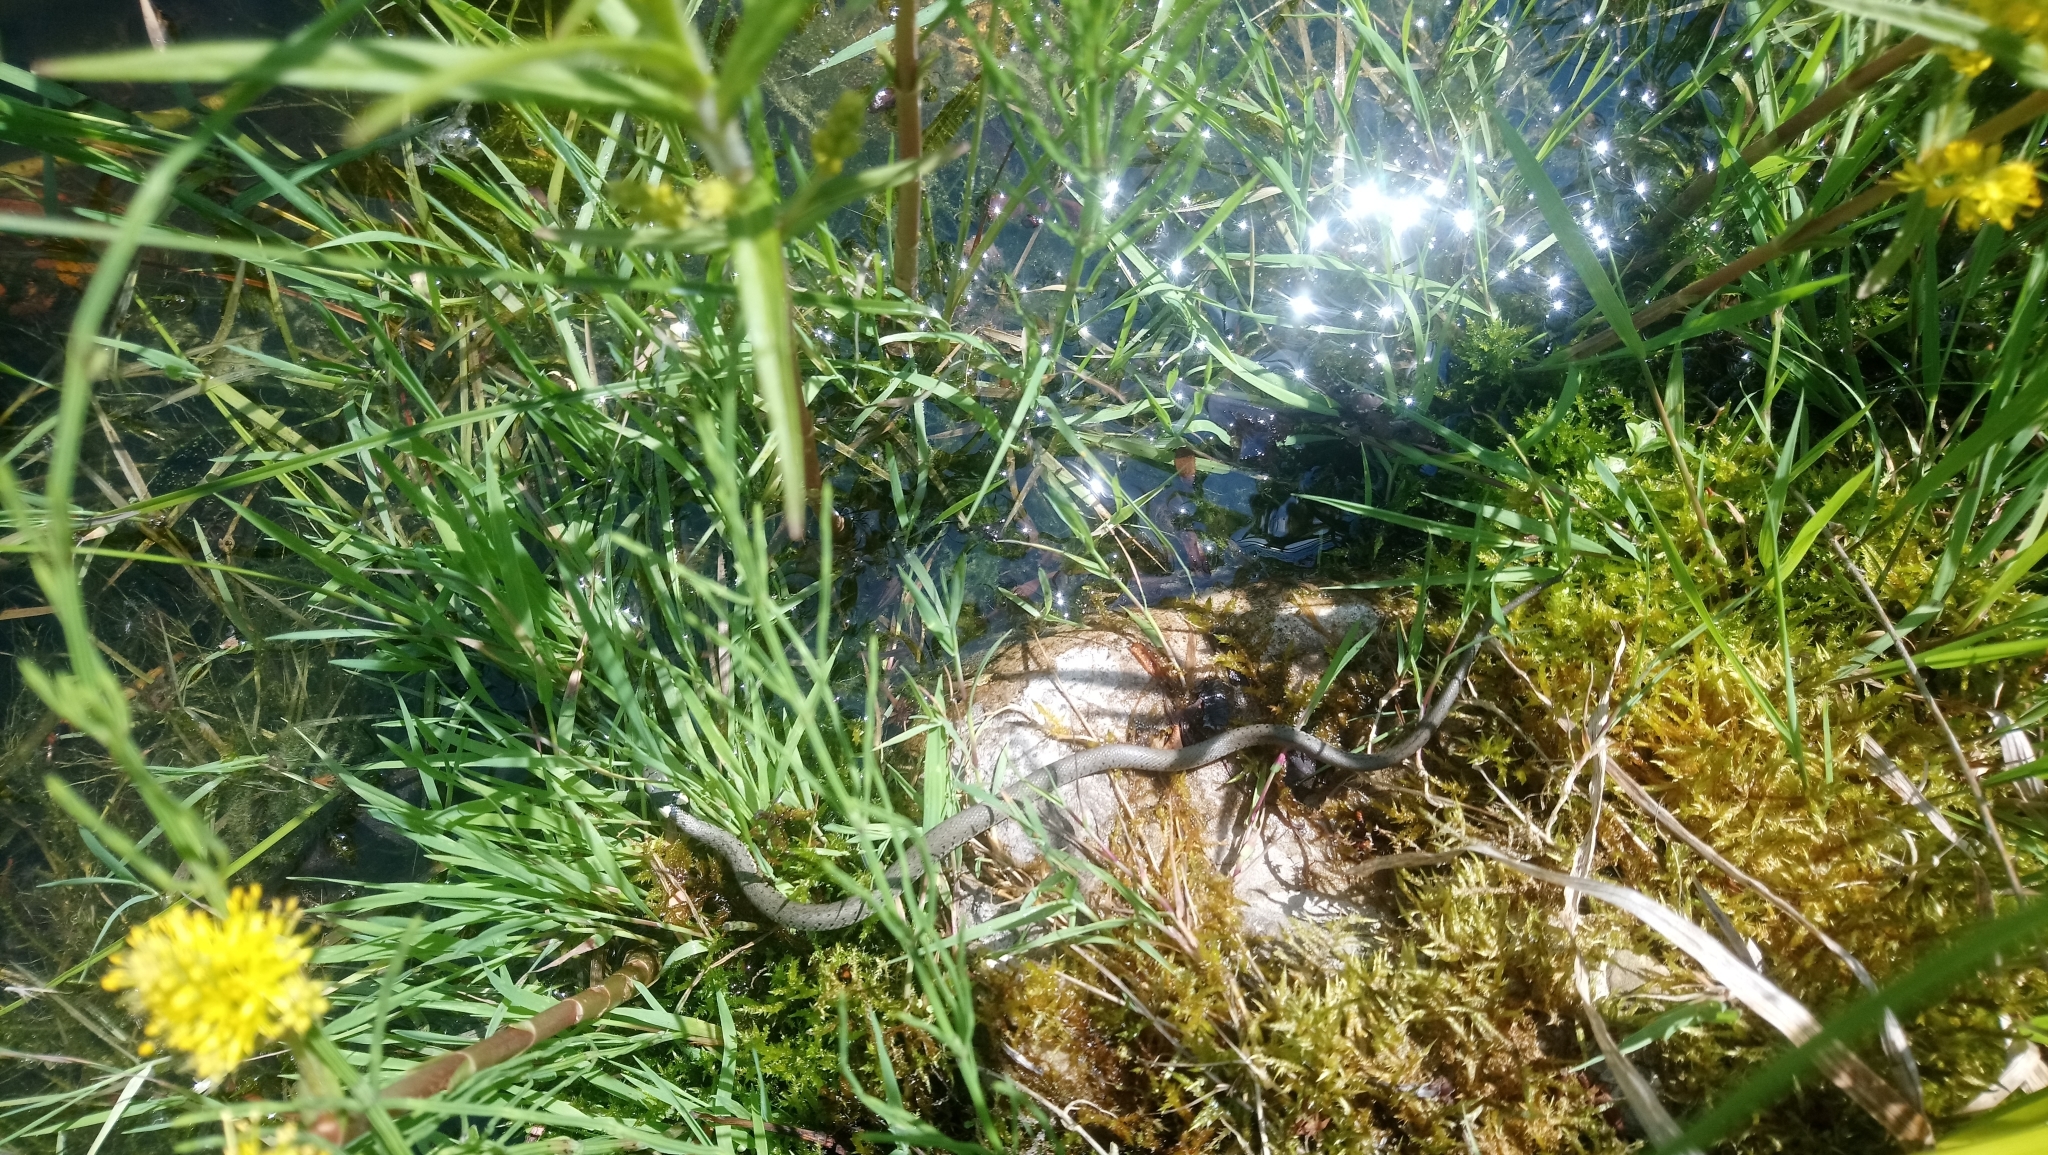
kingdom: Animalia
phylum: Chordata
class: Squamata
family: Colubridae
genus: Natrix
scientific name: Natrix natrix
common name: Grass snake
